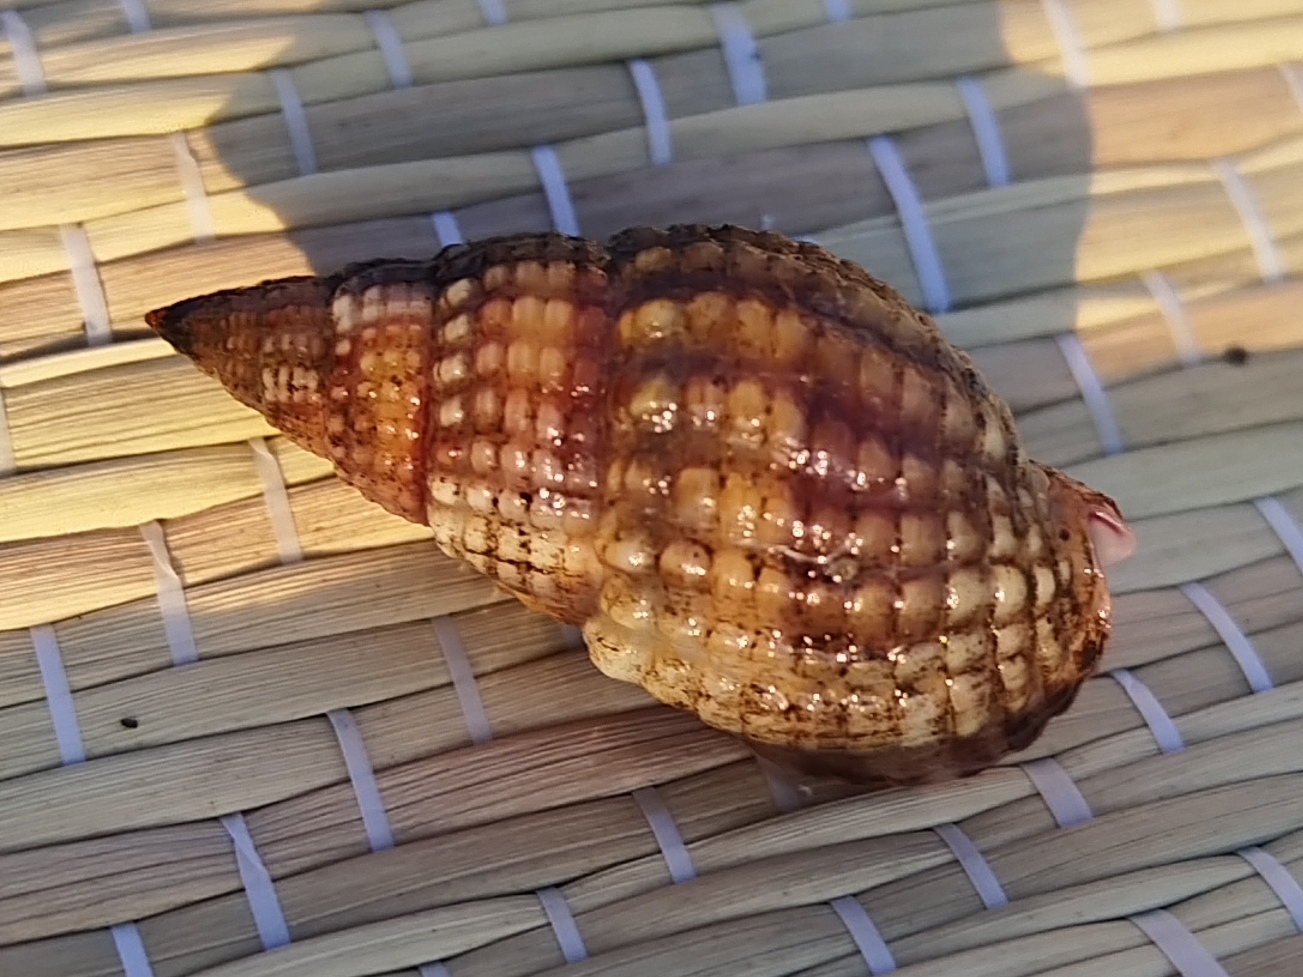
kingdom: Animalia
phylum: Mollusca
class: Gastropoda
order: Neogastropoda
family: Nassariidae
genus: Tritia
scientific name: Tritia nitida
